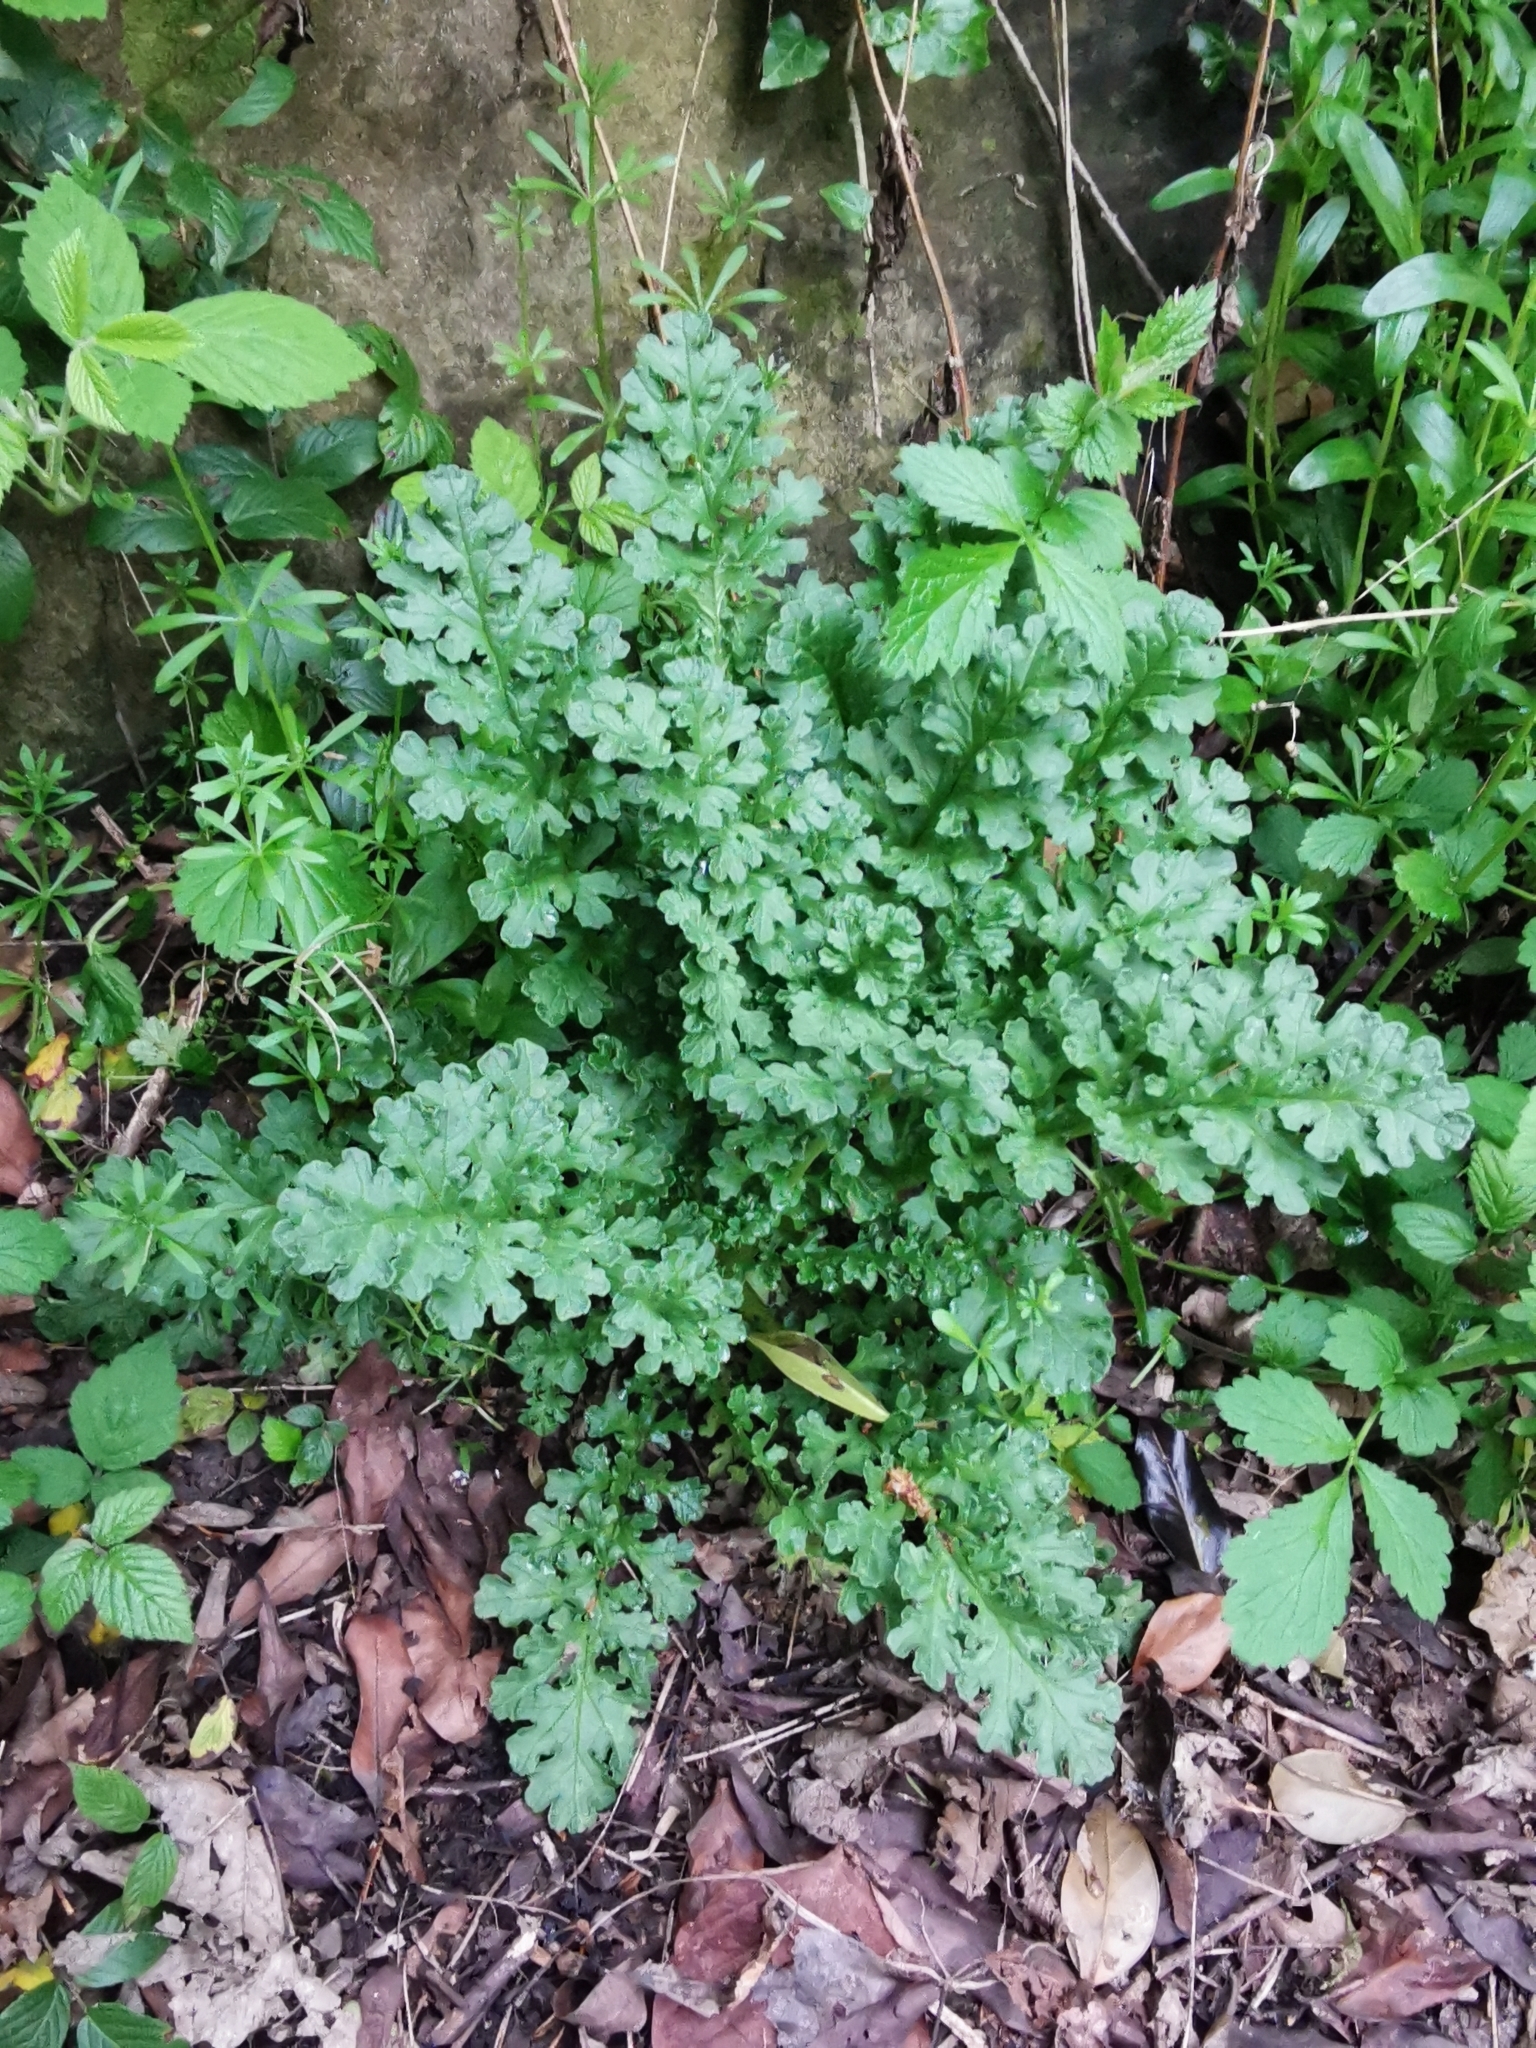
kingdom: Plantae
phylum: Tracheophyta
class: Magnoliopsida
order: Asterales
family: Asteraceae
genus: Jacobaea
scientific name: Jacobaea vulgaris
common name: Stinking willie
